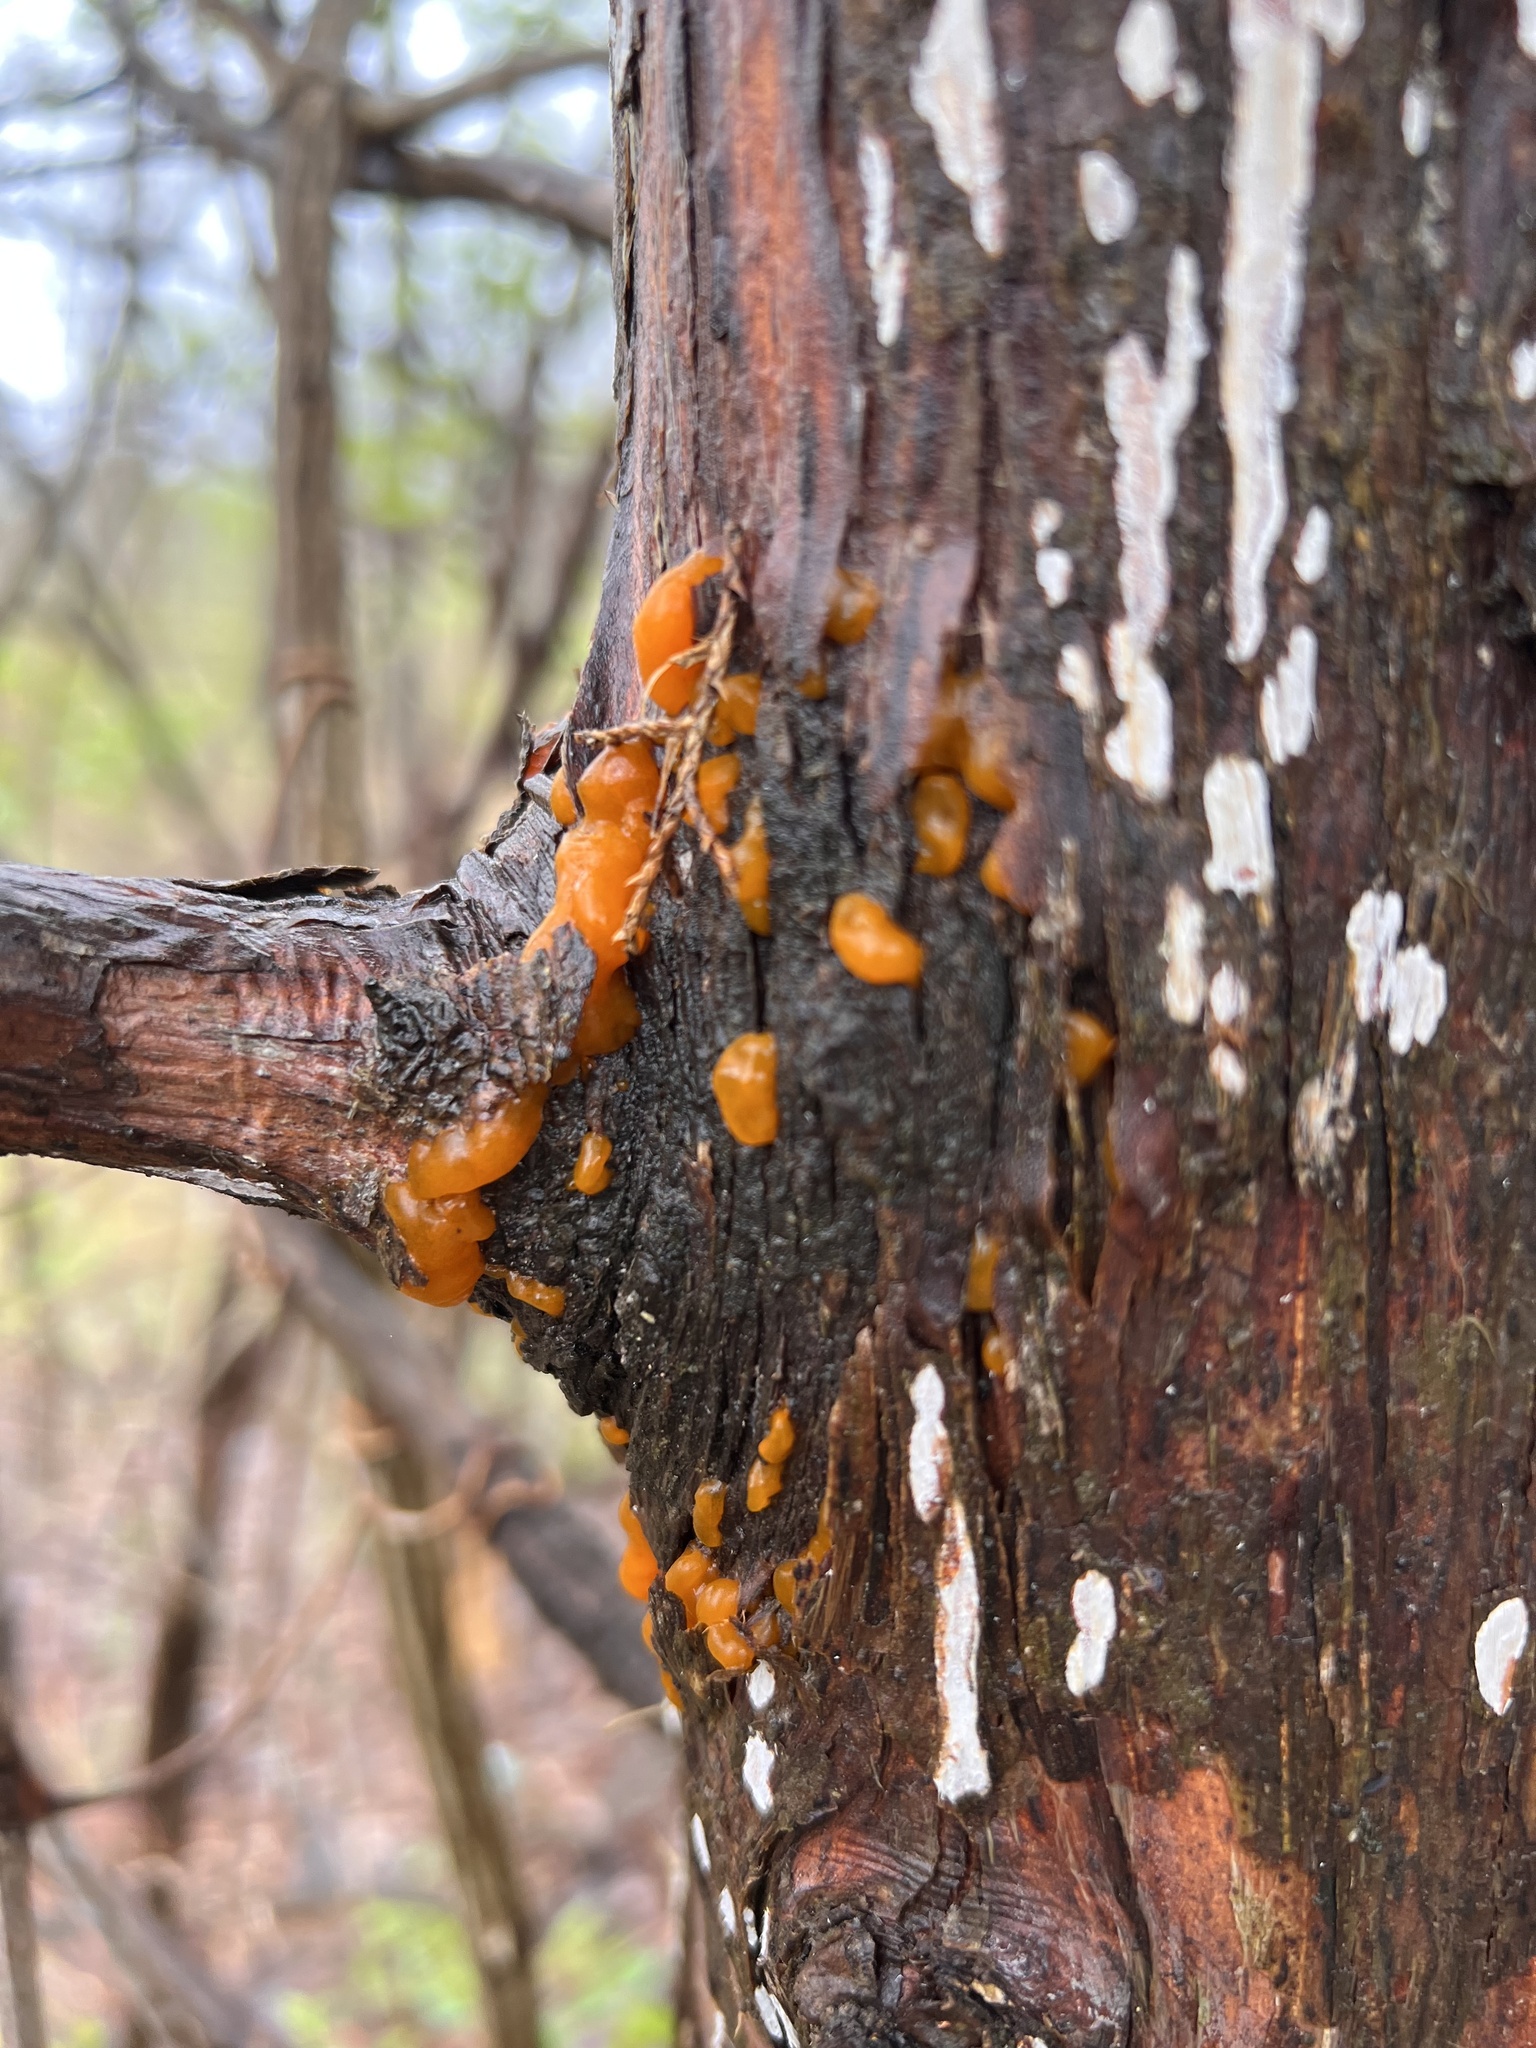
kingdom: Fungi
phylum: Basidiomycota
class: Pucciniomycetes
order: Pucciniales
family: Gymnosporangiaceae
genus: Gymnosporangium
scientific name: Gymnosporangium clavipes
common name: Quince rust
